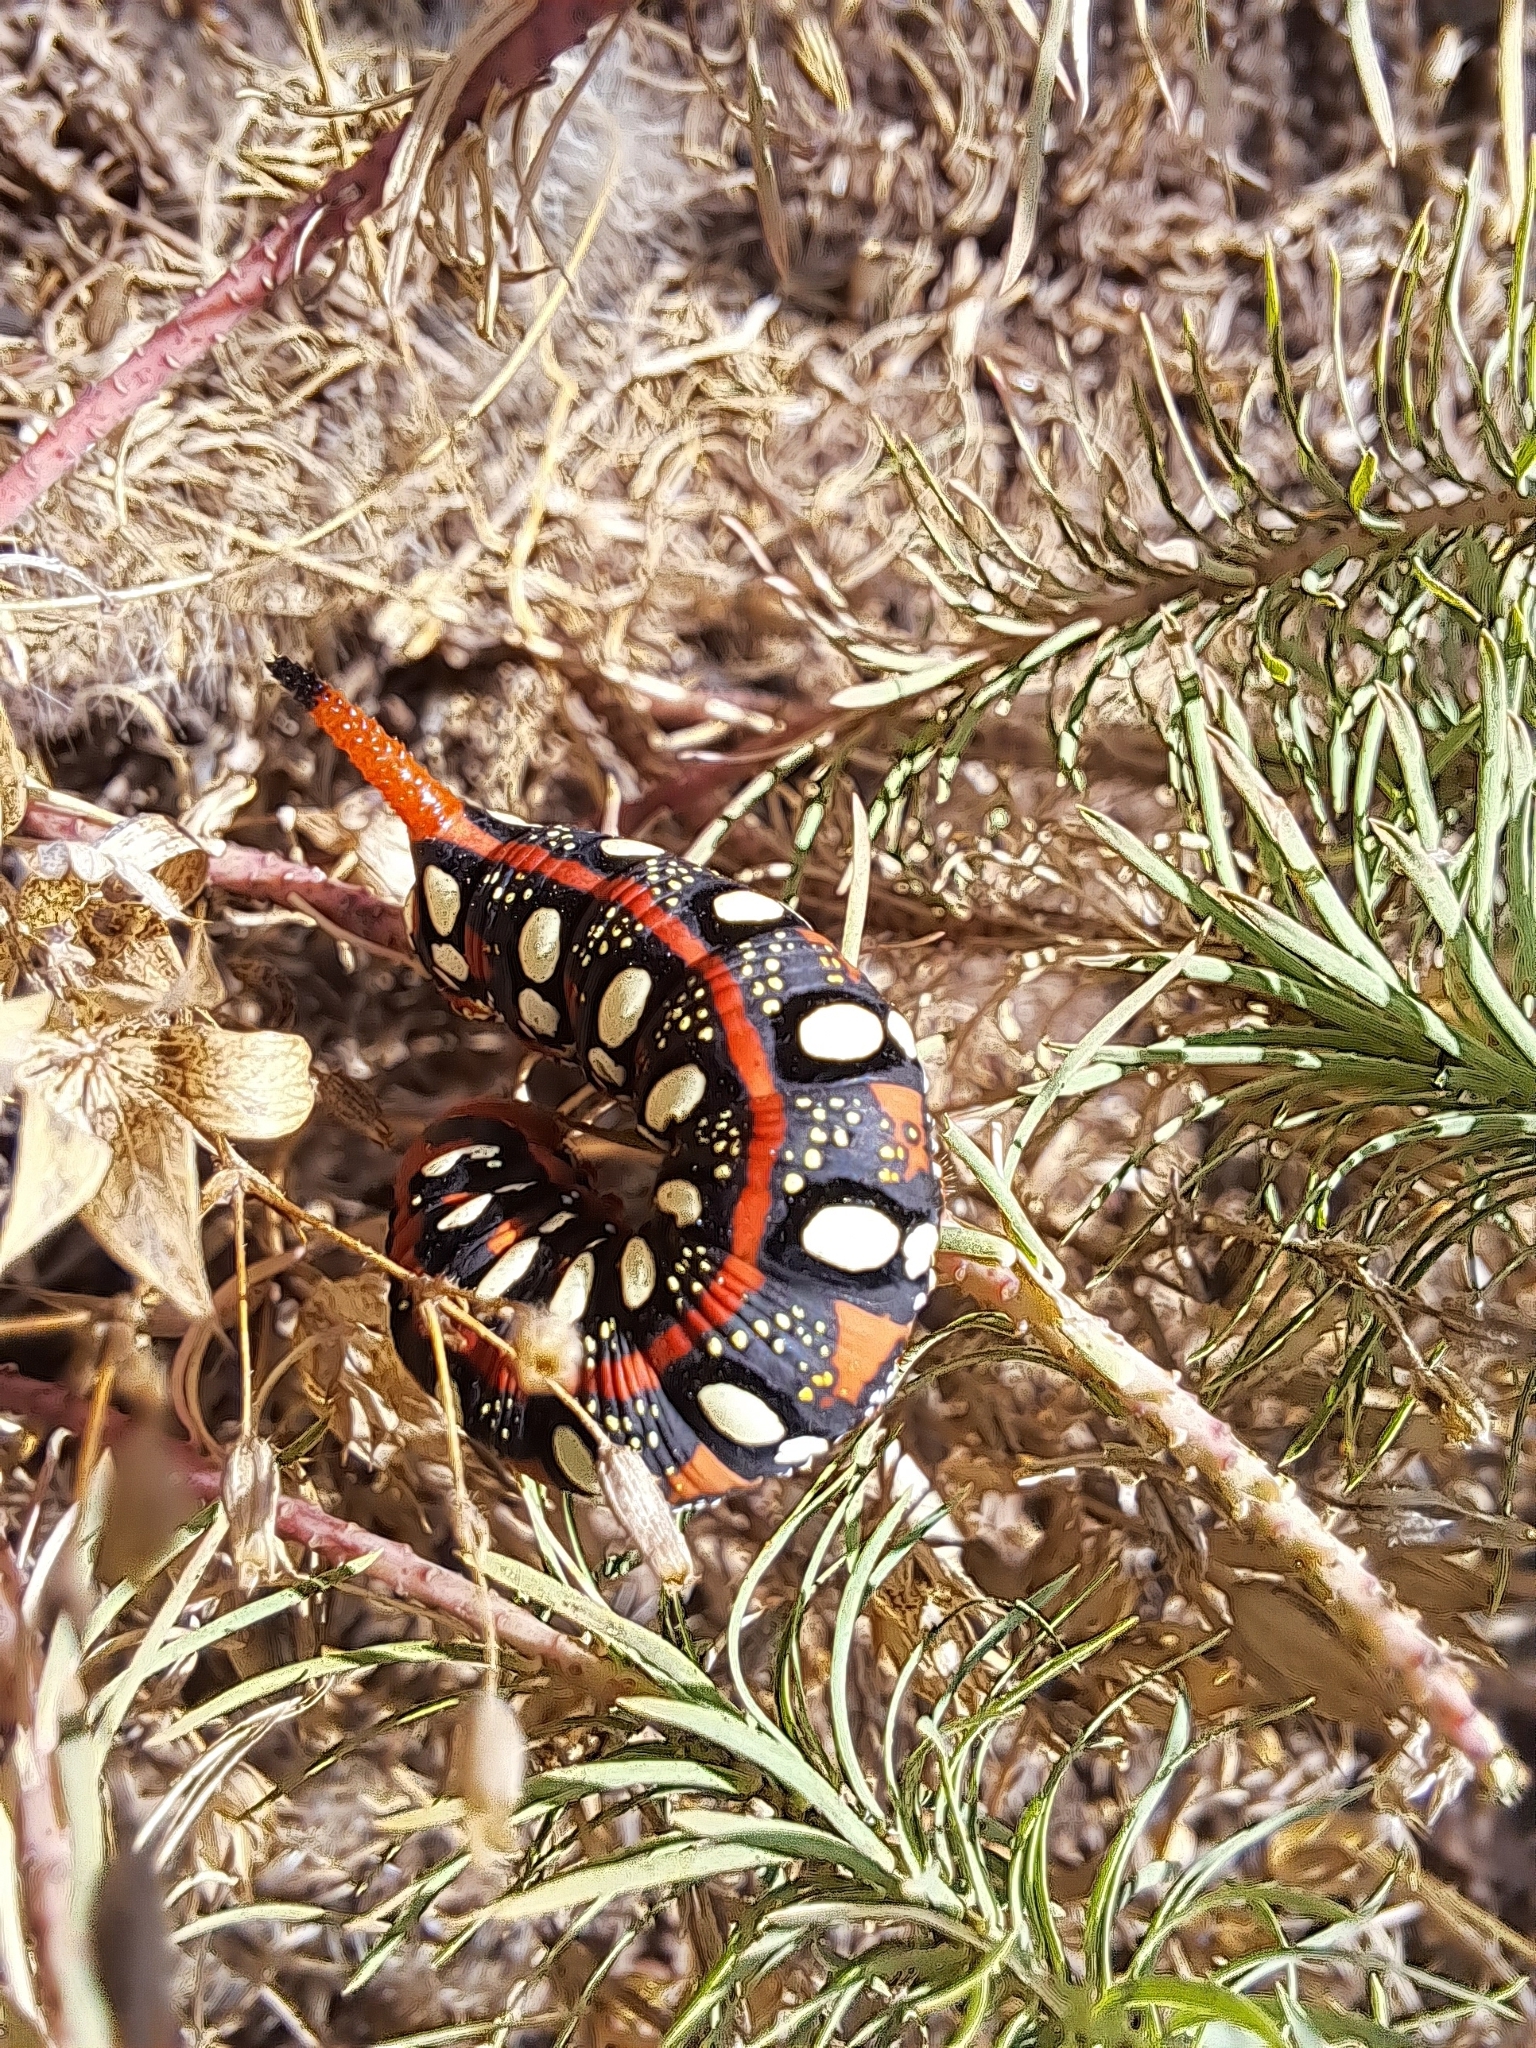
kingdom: Animalia
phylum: Arthropoda
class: Insecta
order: Lepidoptera
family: Sphingidae
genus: Hyles
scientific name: Hyles euphorbiae
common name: Spurge hawk-moth
